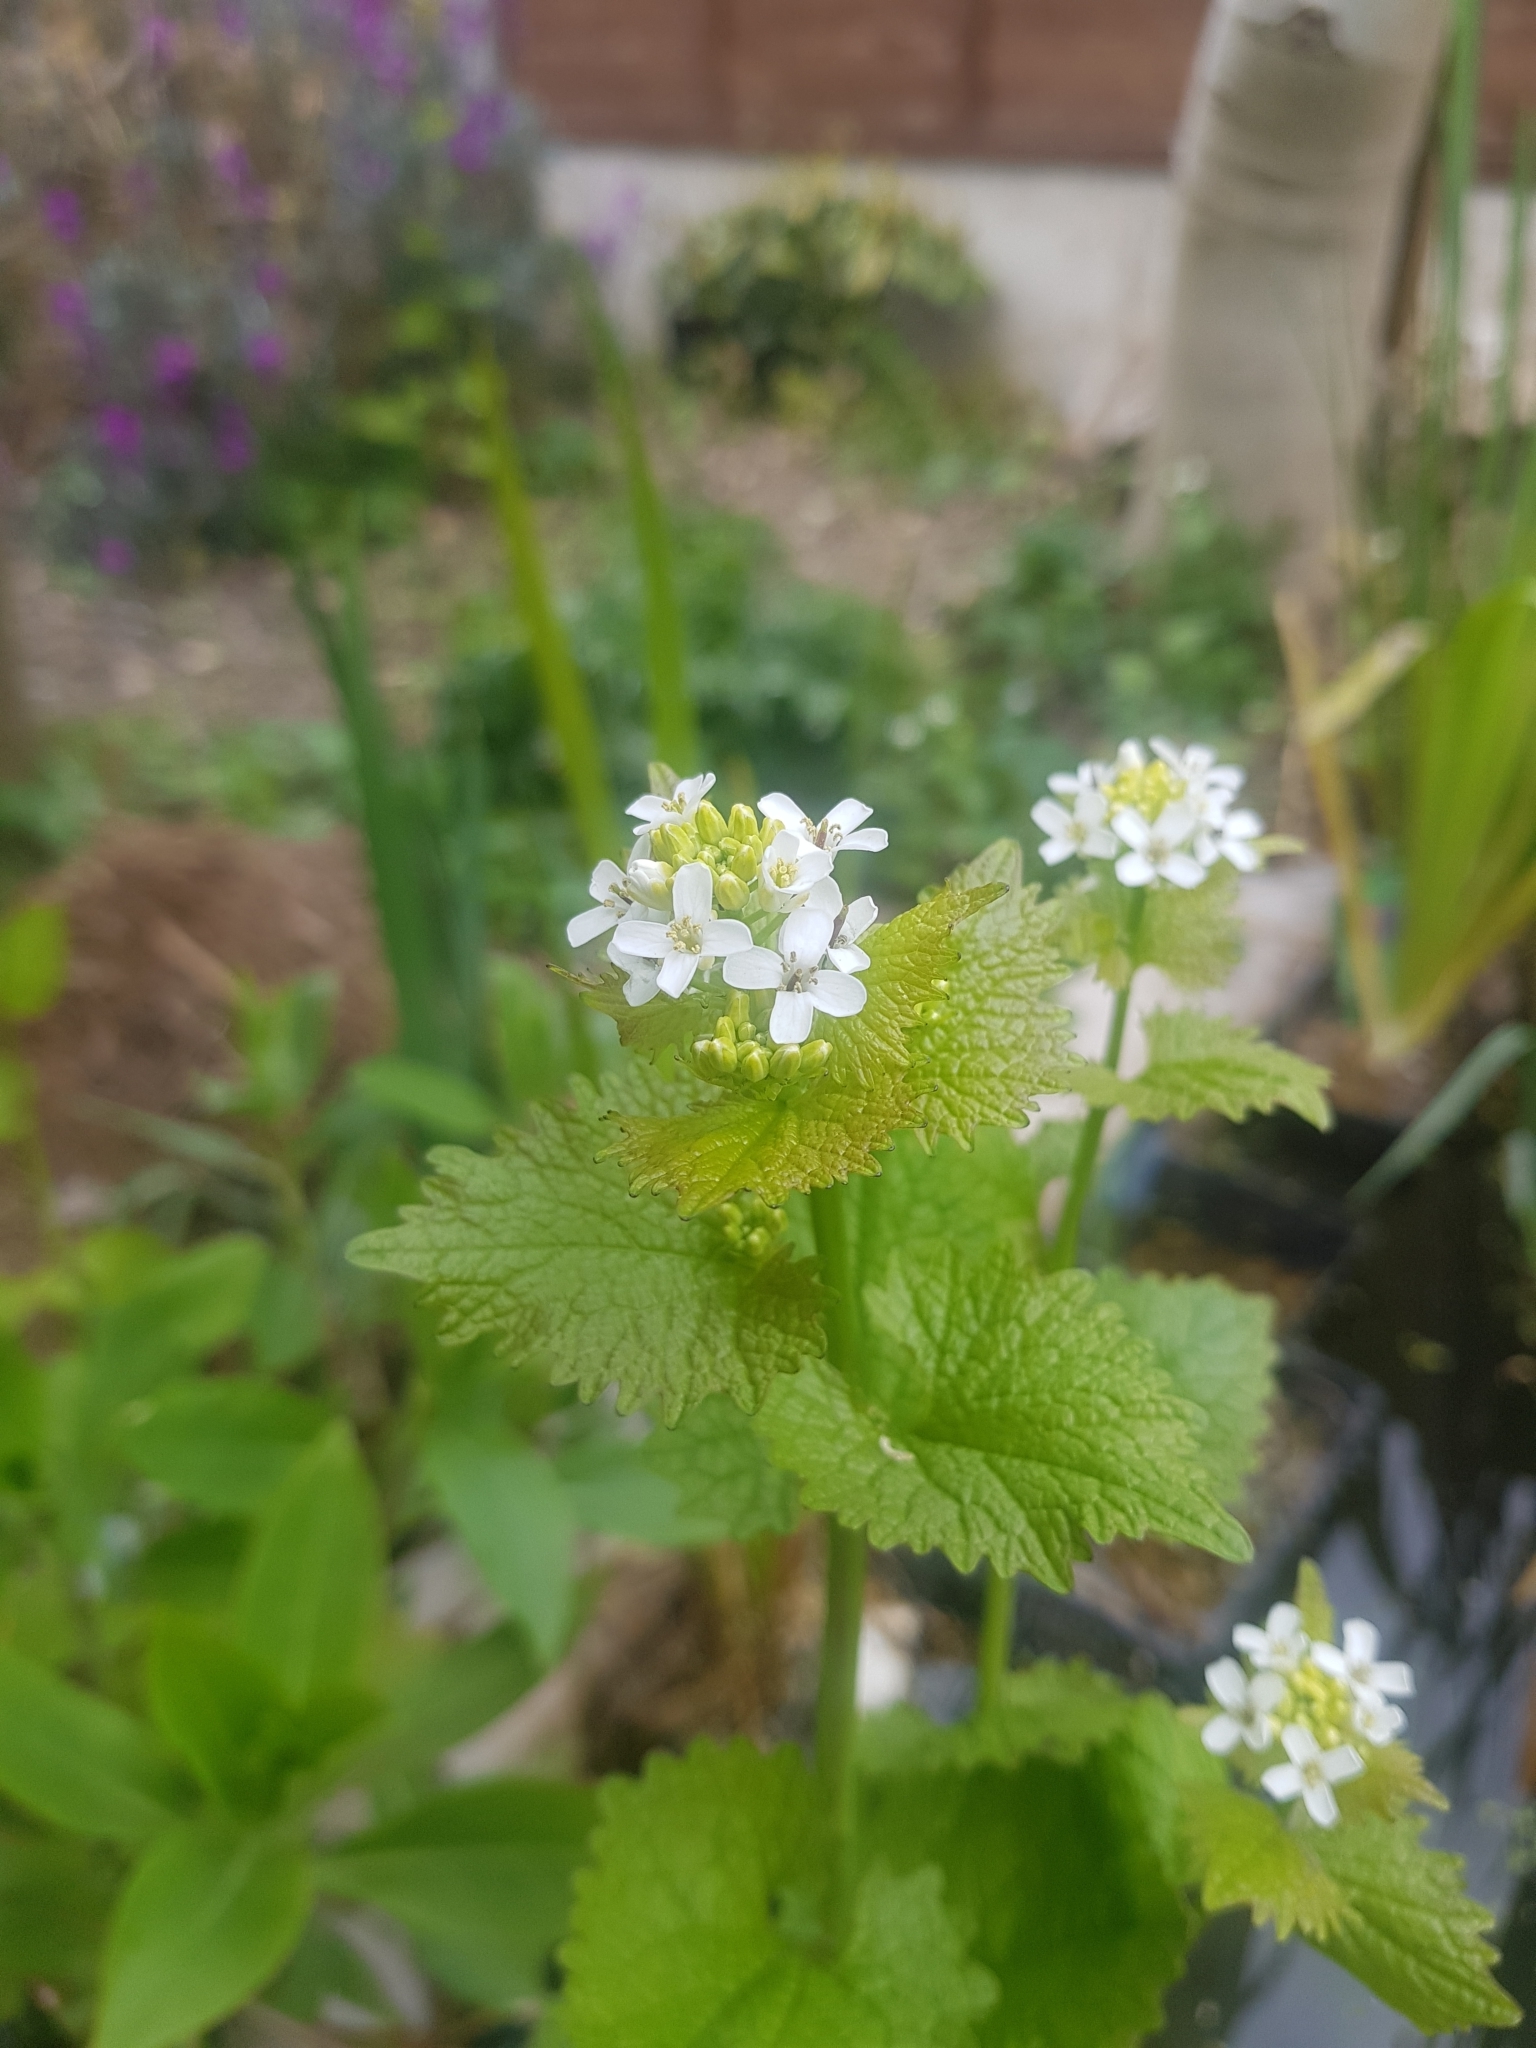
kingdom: Plantae
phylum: Tracheophyta
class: Magnoliopsida
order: Brassicales
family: Brassicaceae
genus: Alliaria
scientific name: Alliaria petiolata
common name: Garlic mustard
